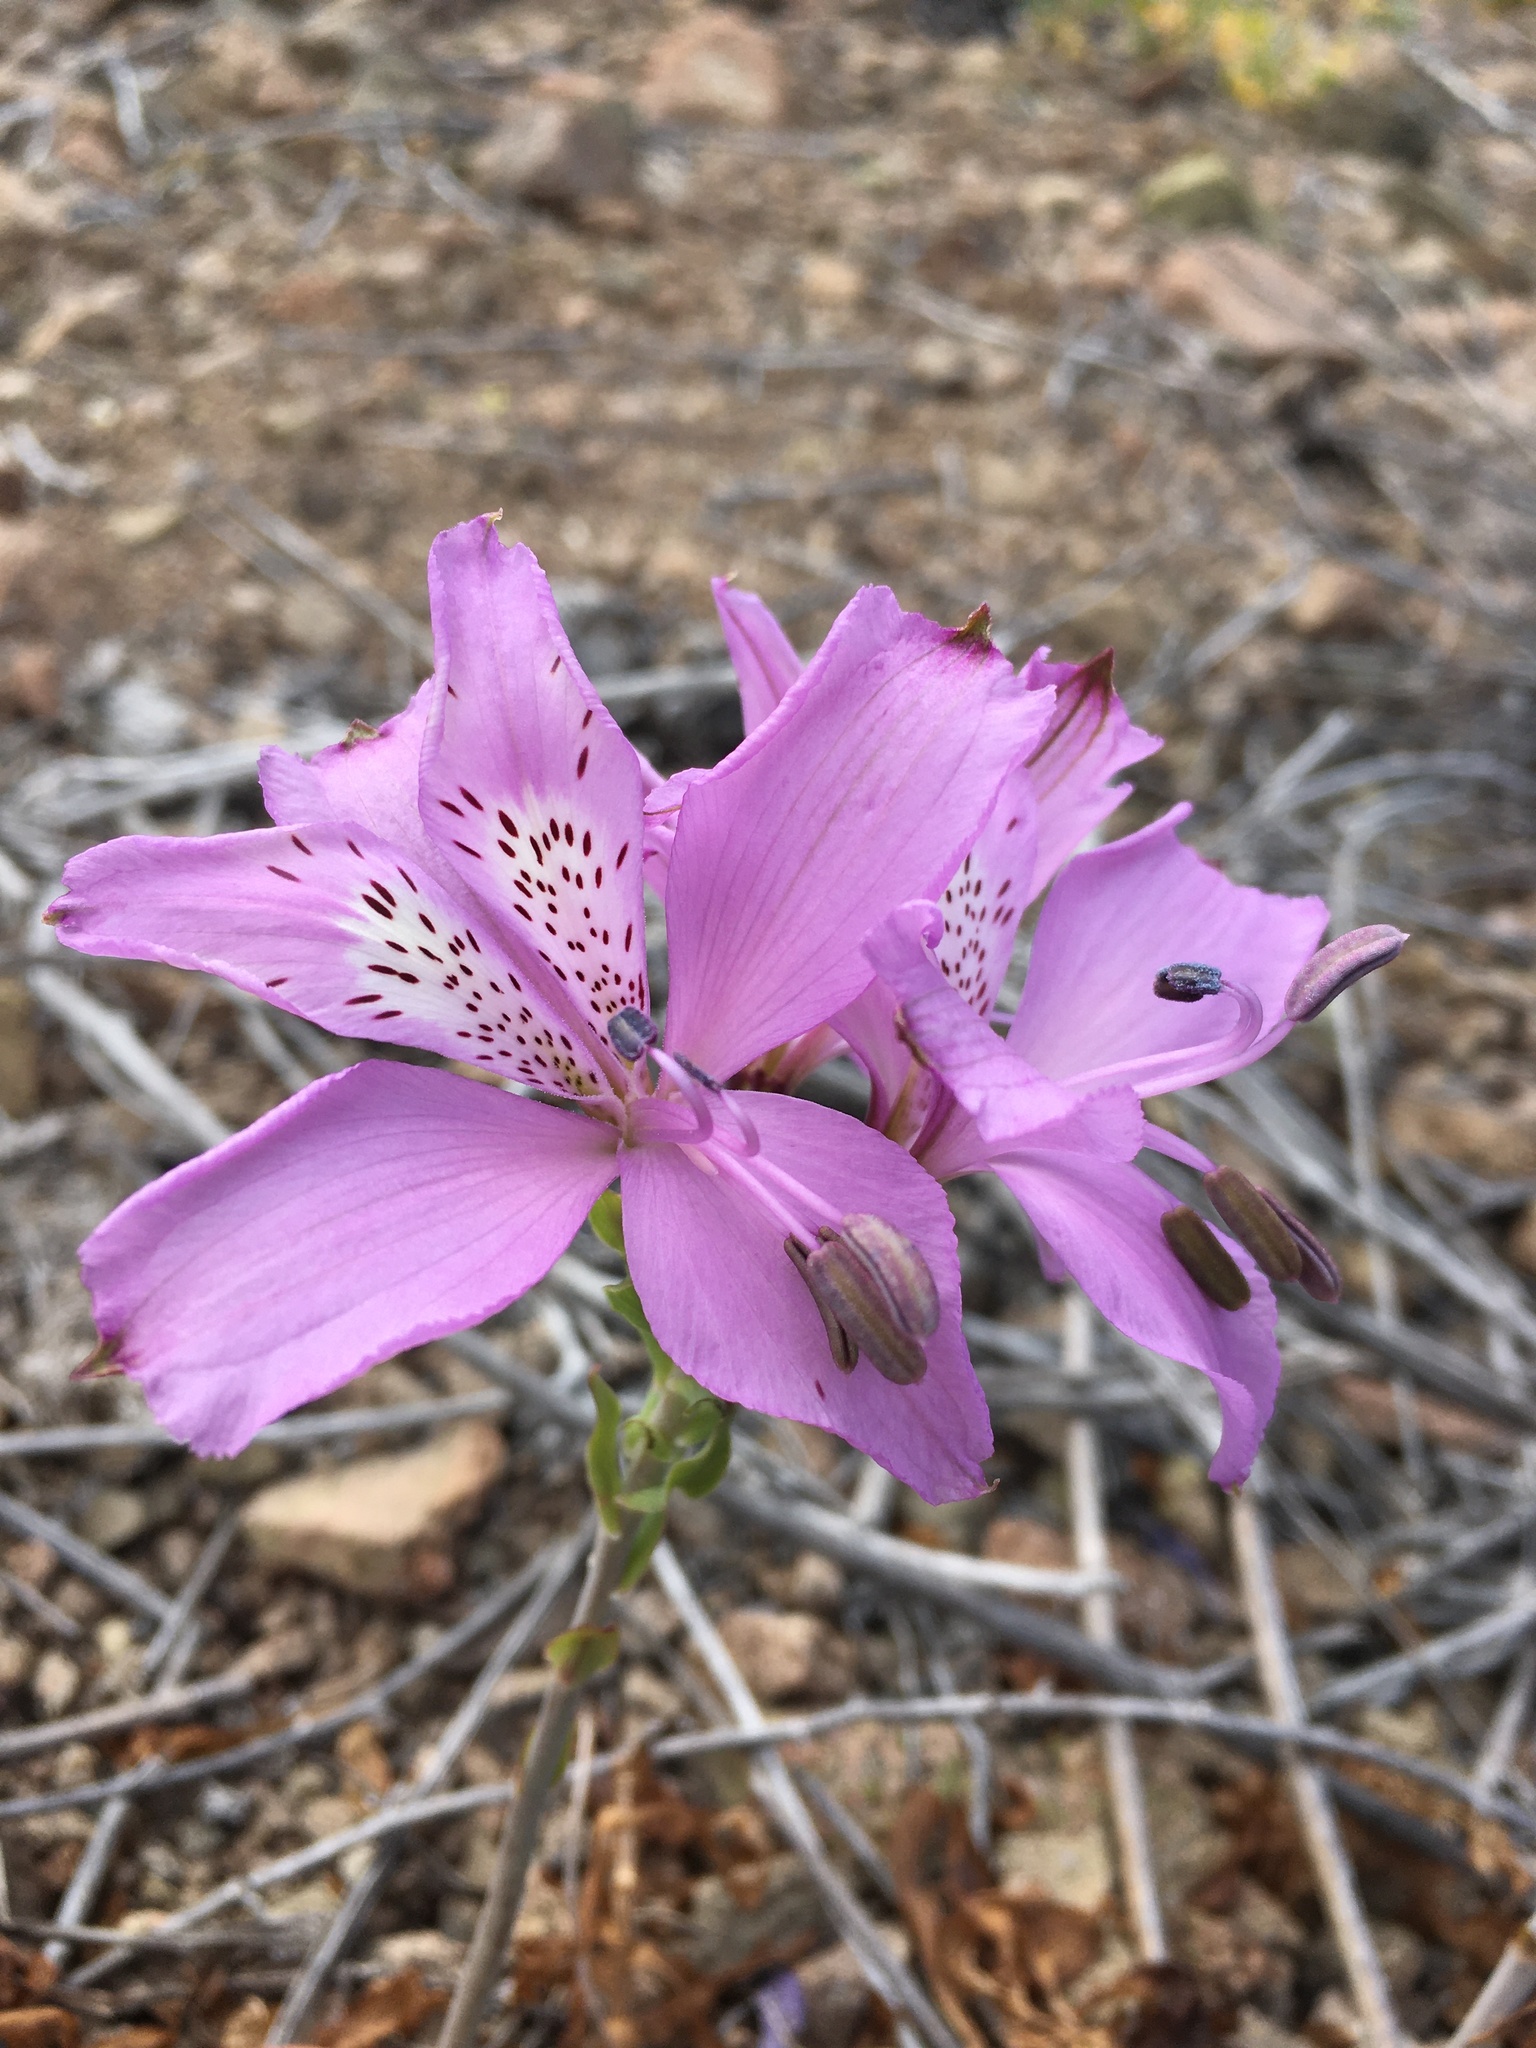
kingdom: Plantae
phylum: Tracheophyta
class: Liliopsida
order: Liliales
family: Alstroemeriaceae
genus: Alstroemeria
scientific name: Alstroemeria violacea
